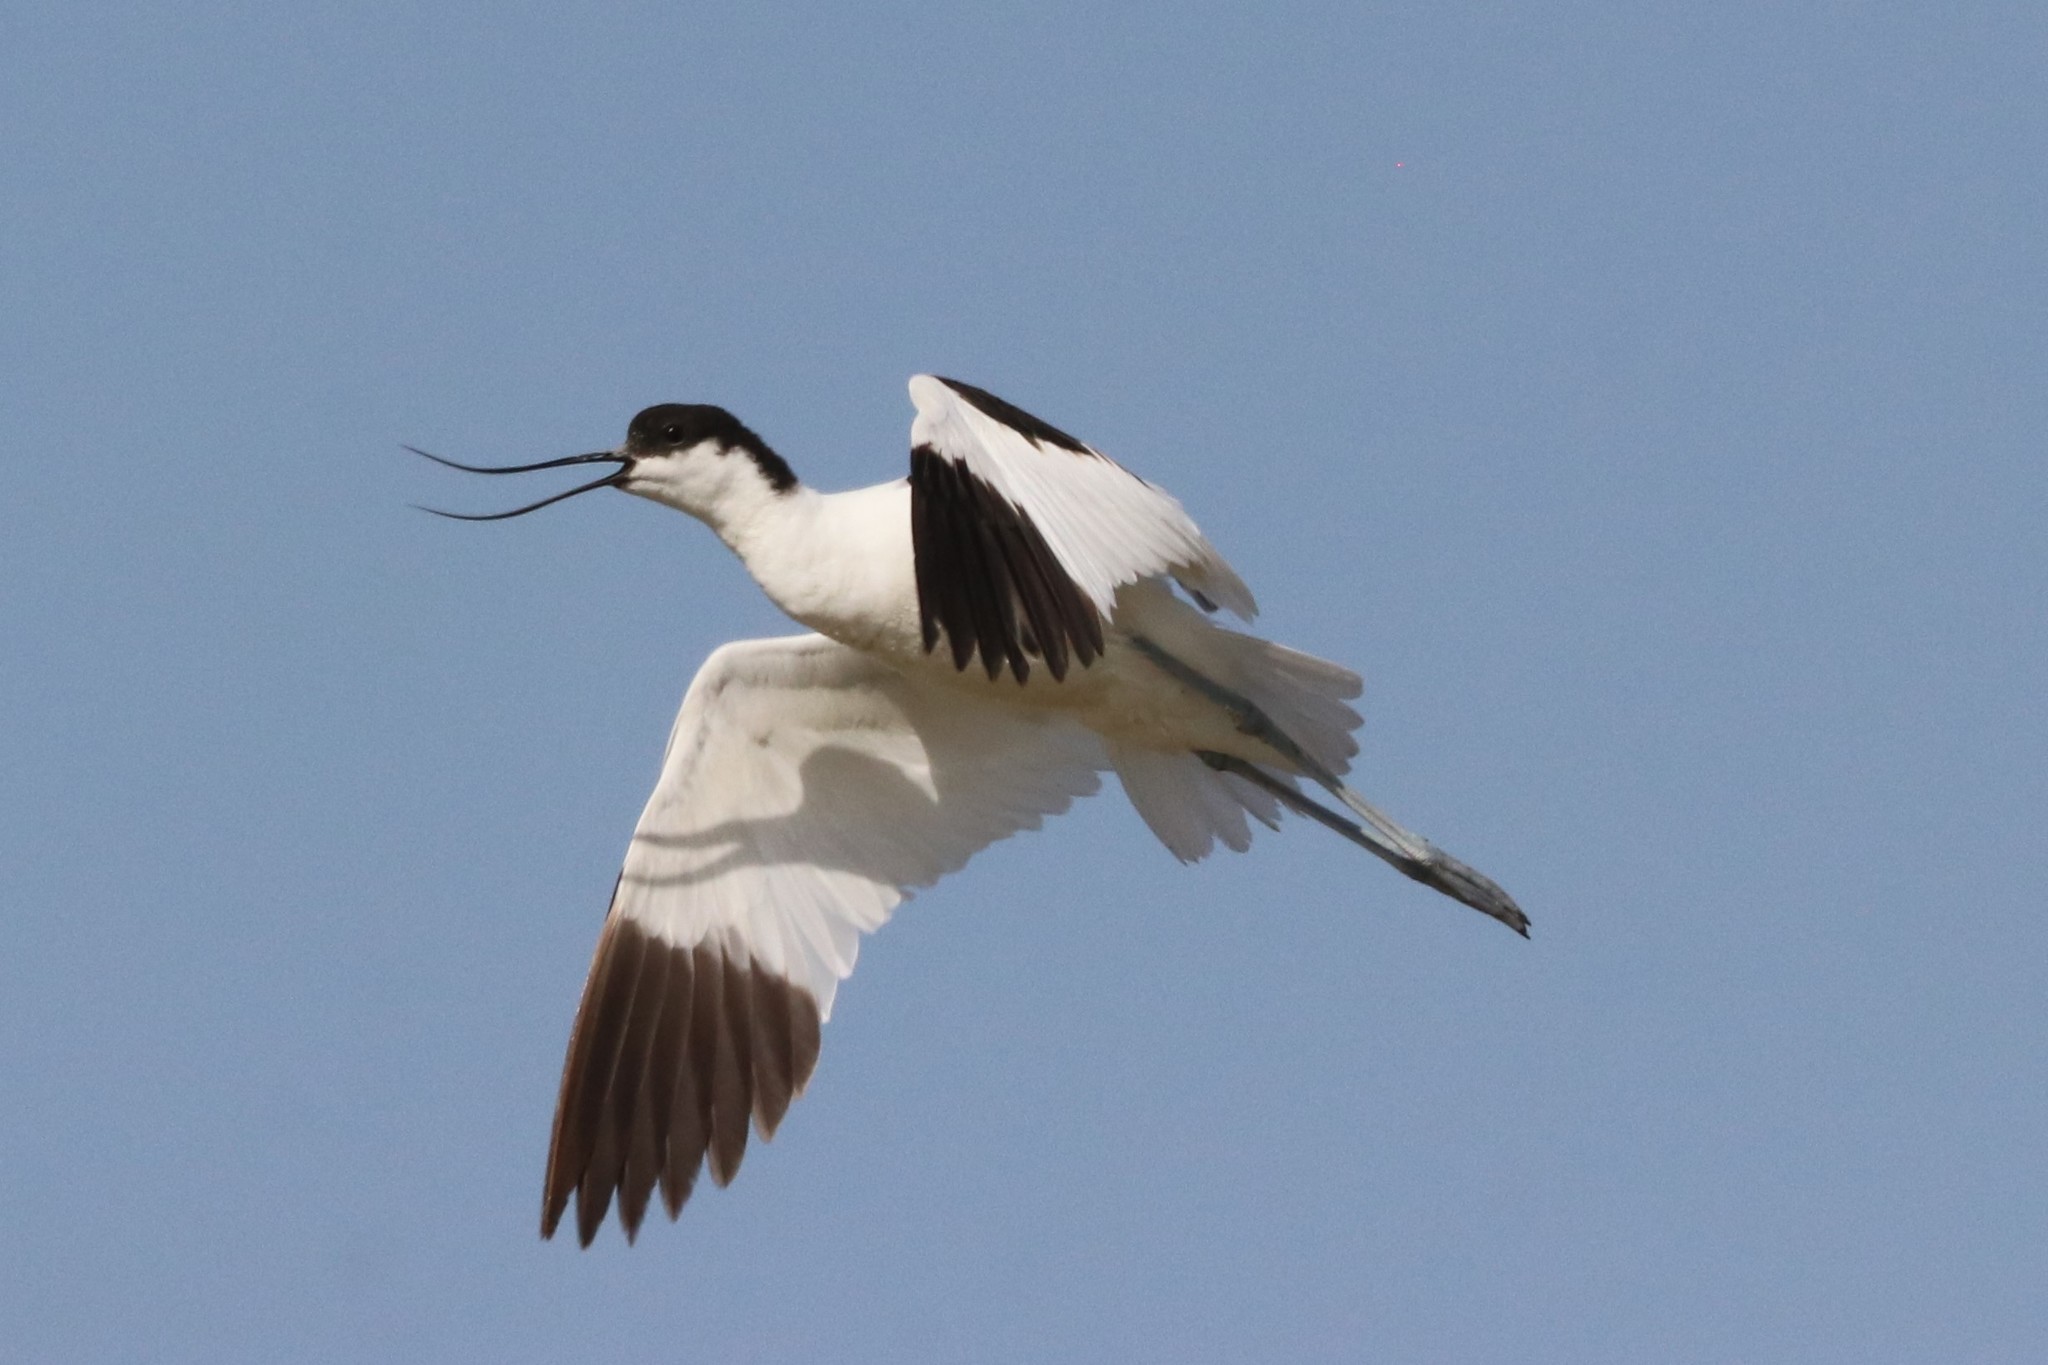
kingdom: Animalia
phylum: Chordata
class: Aves
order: Charadriiformes
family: Recurvirostridae
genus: Recurvirostra
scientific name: Recurvirostra avosetta
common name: Pied avocet
